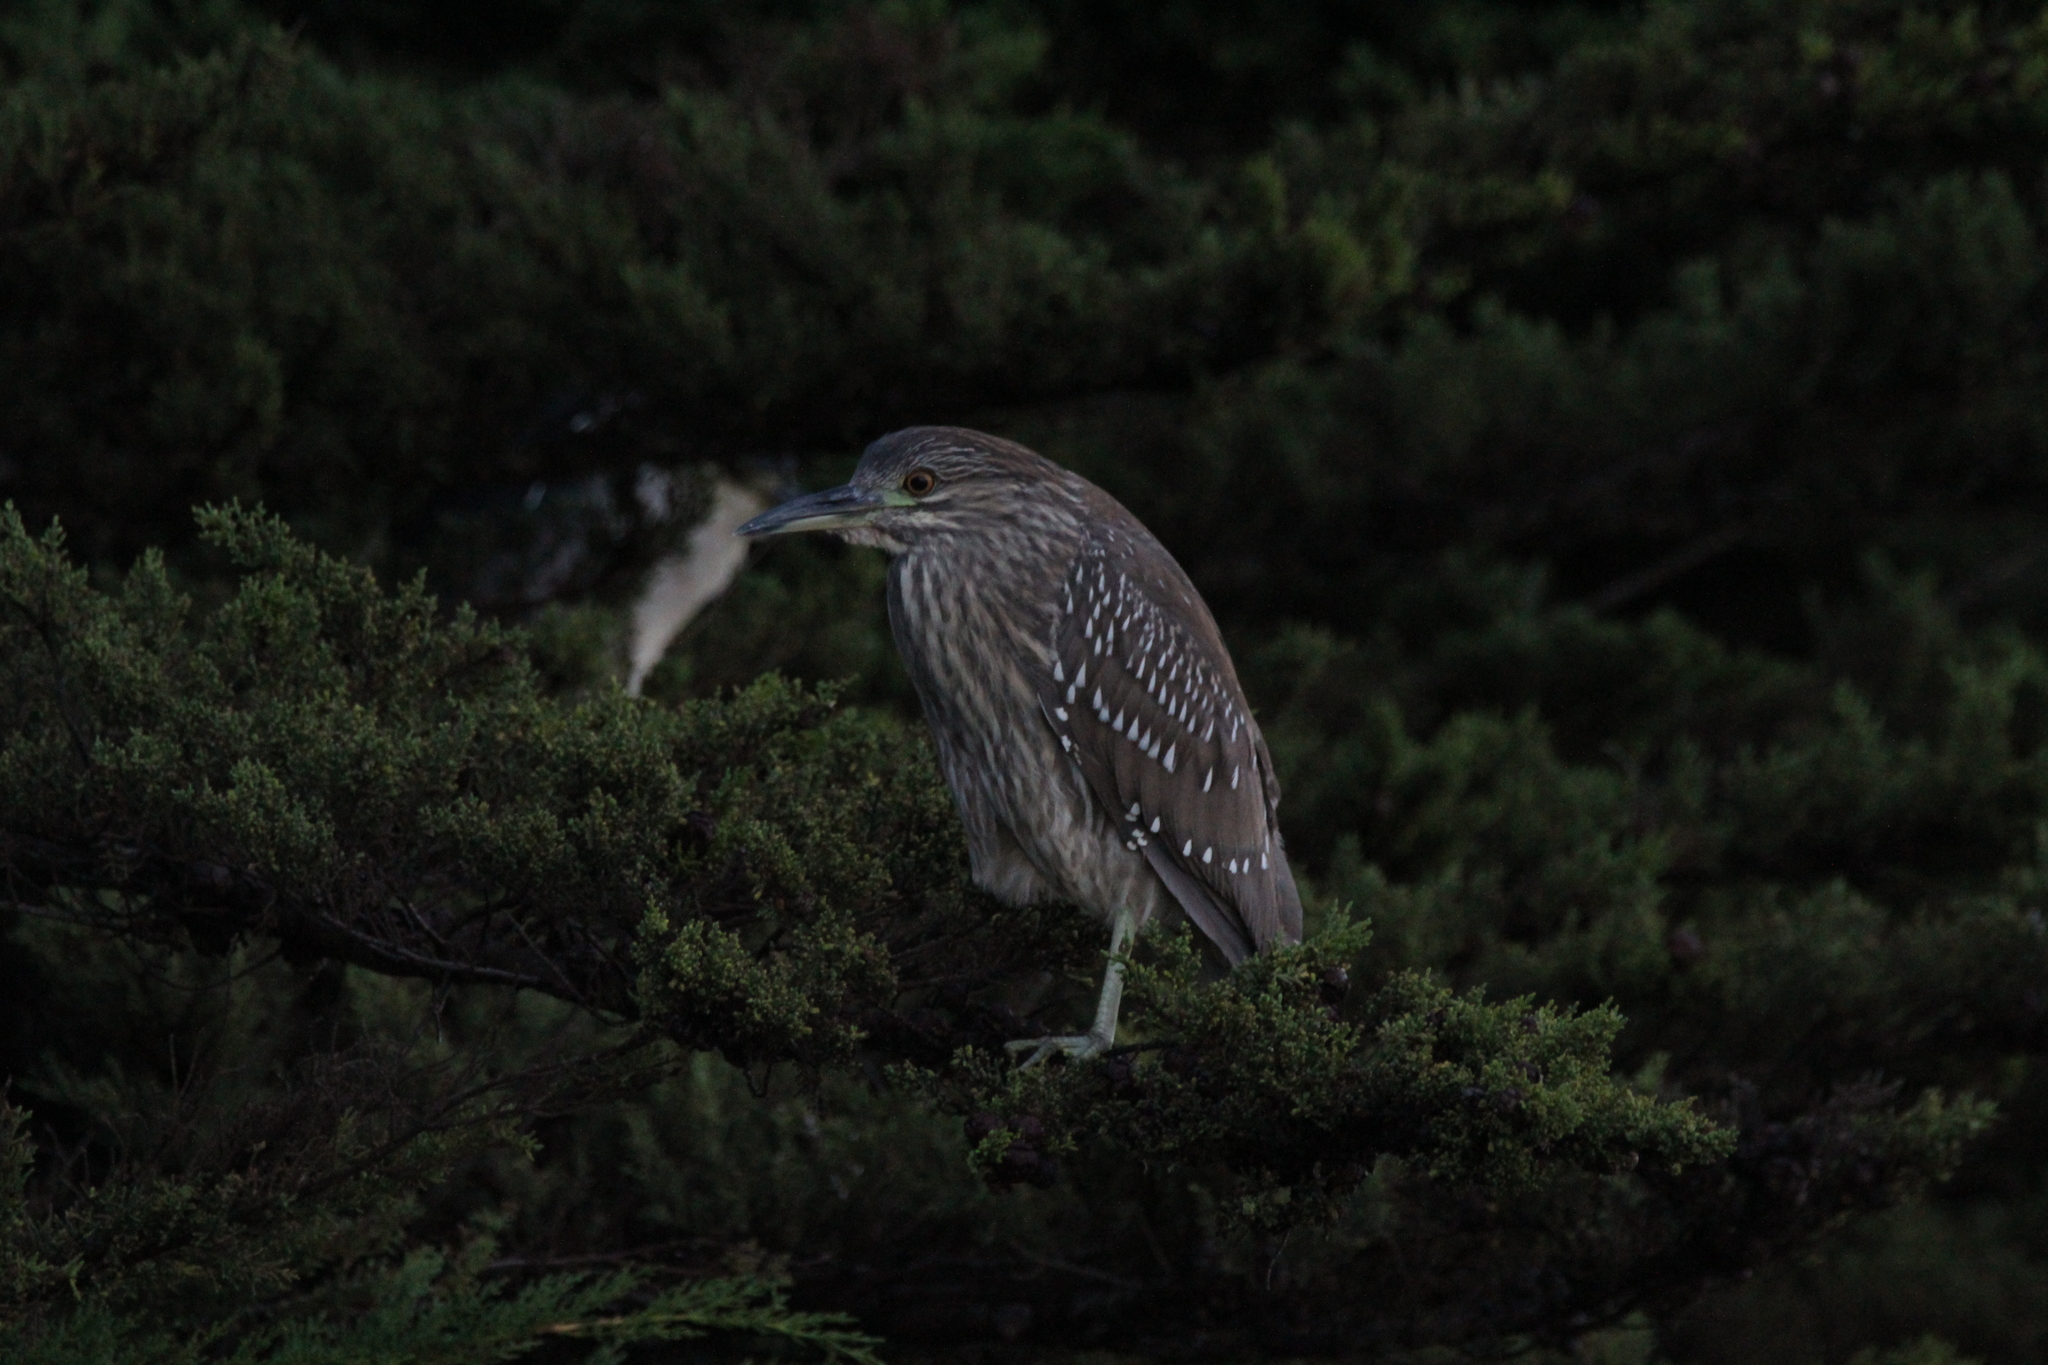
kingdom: Animalia
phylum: Chordata
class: Aves
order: Pelecaniformes
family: Ardeidae
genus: Nycticorax
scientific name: Nycticorax nycticorax
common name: Black-crowned night heron
